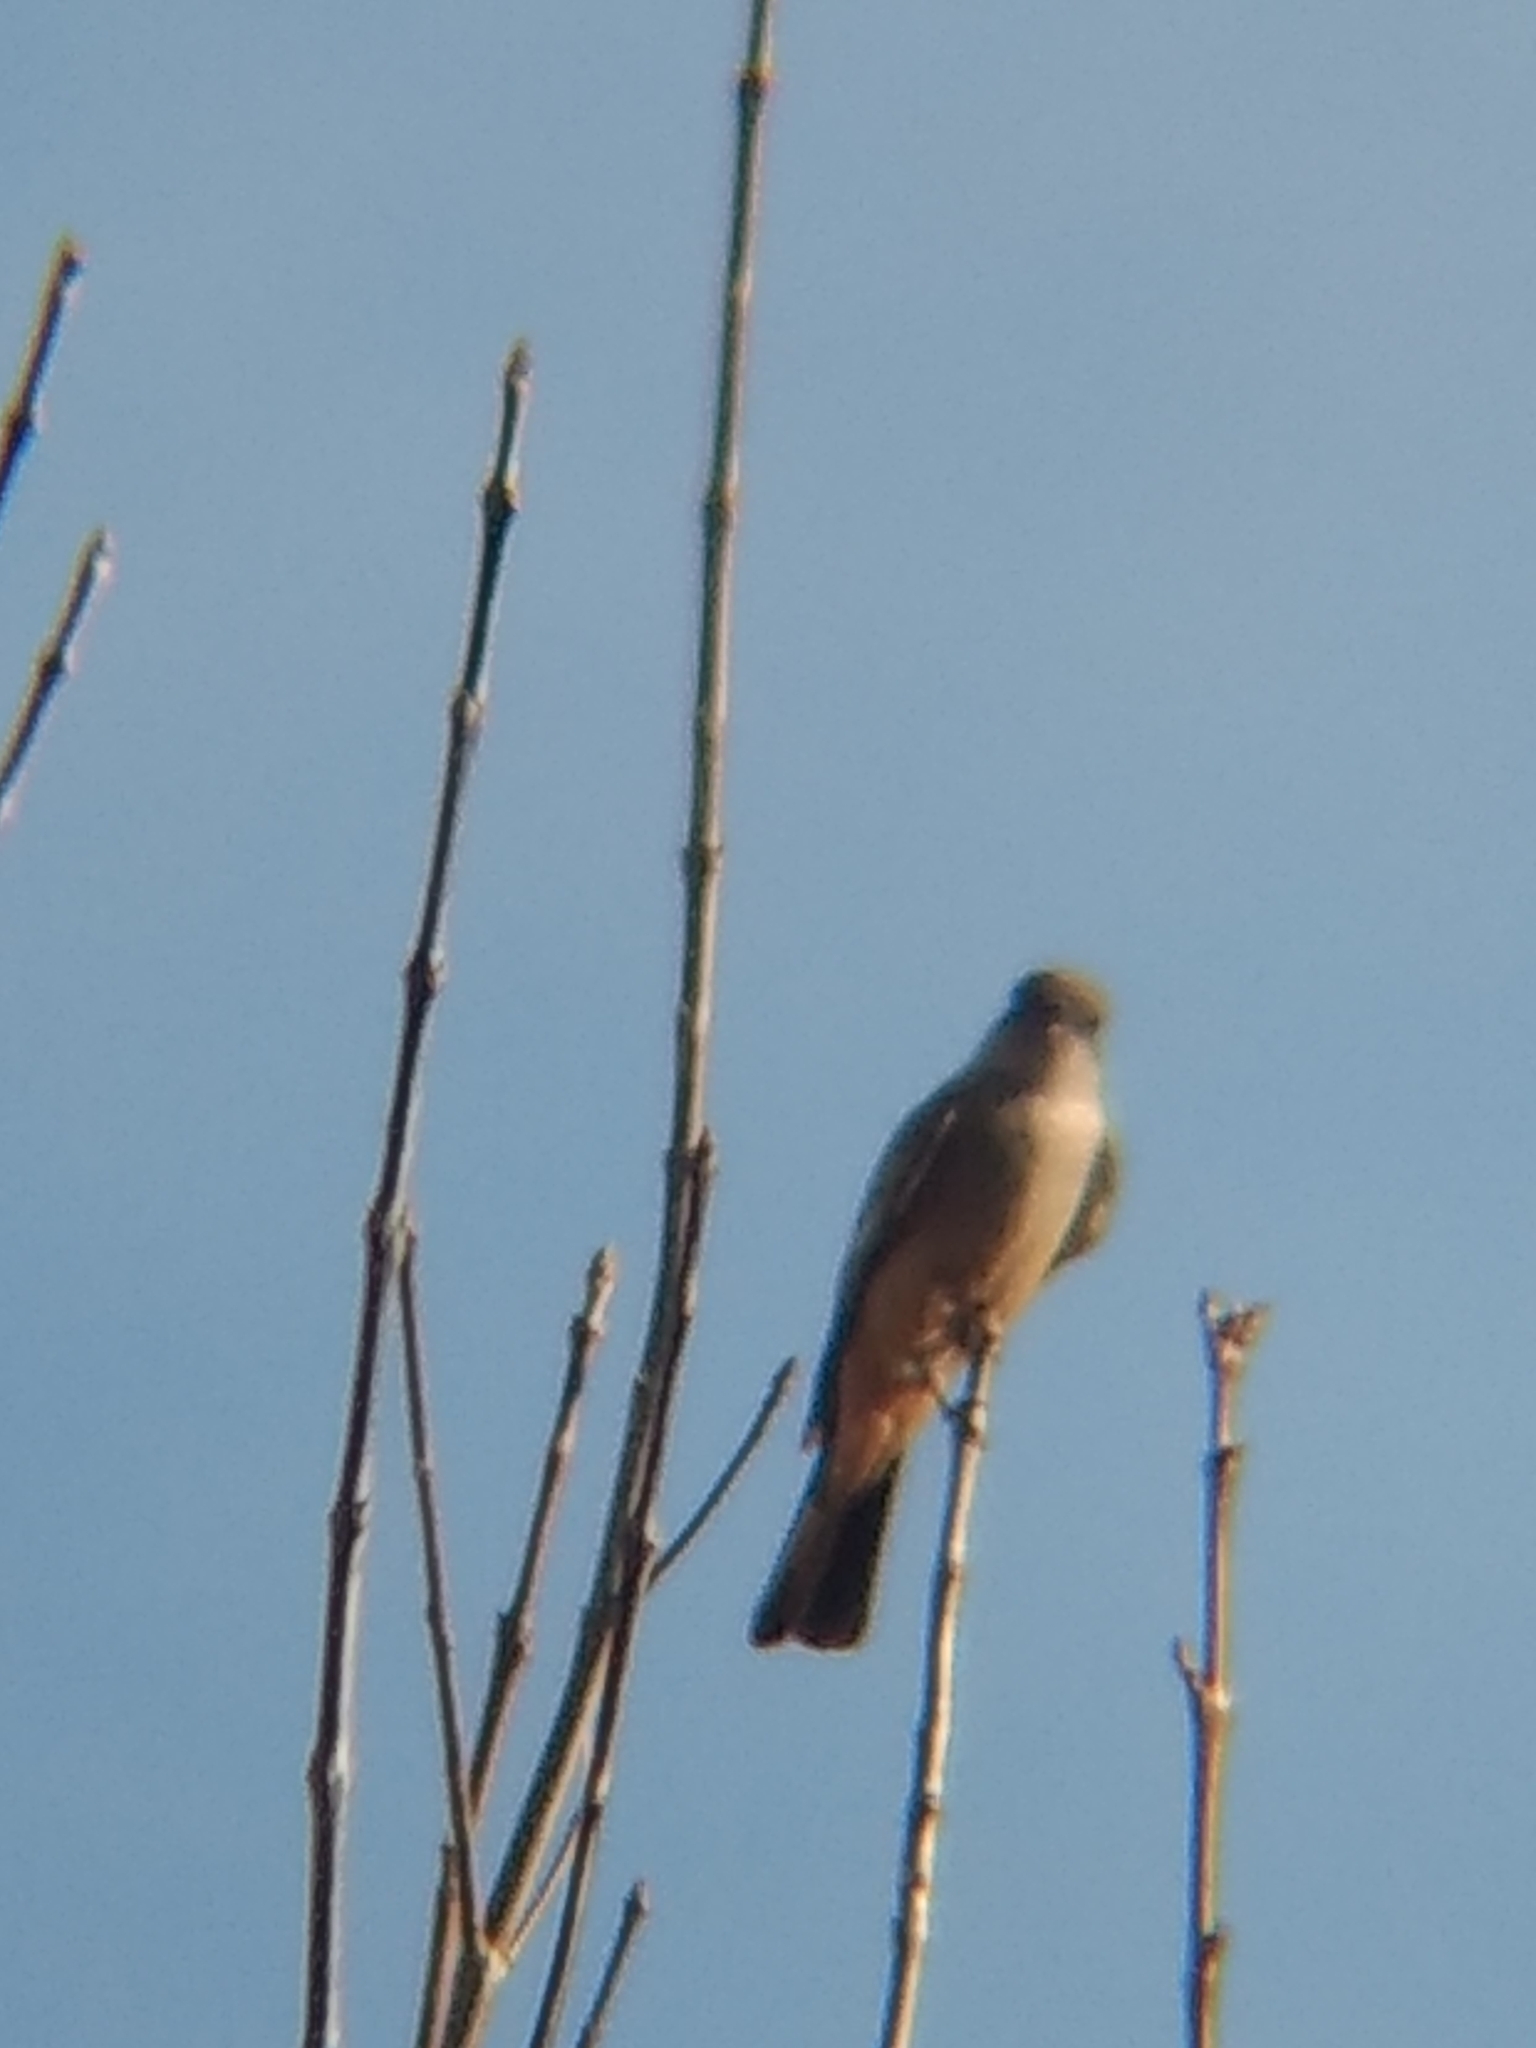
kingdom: Animalia
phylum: Chordata
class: Aves
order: Passeriformes
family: Tyrannidae
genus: Sayornis
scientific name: Sayornis saya
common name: Say's phoebe
